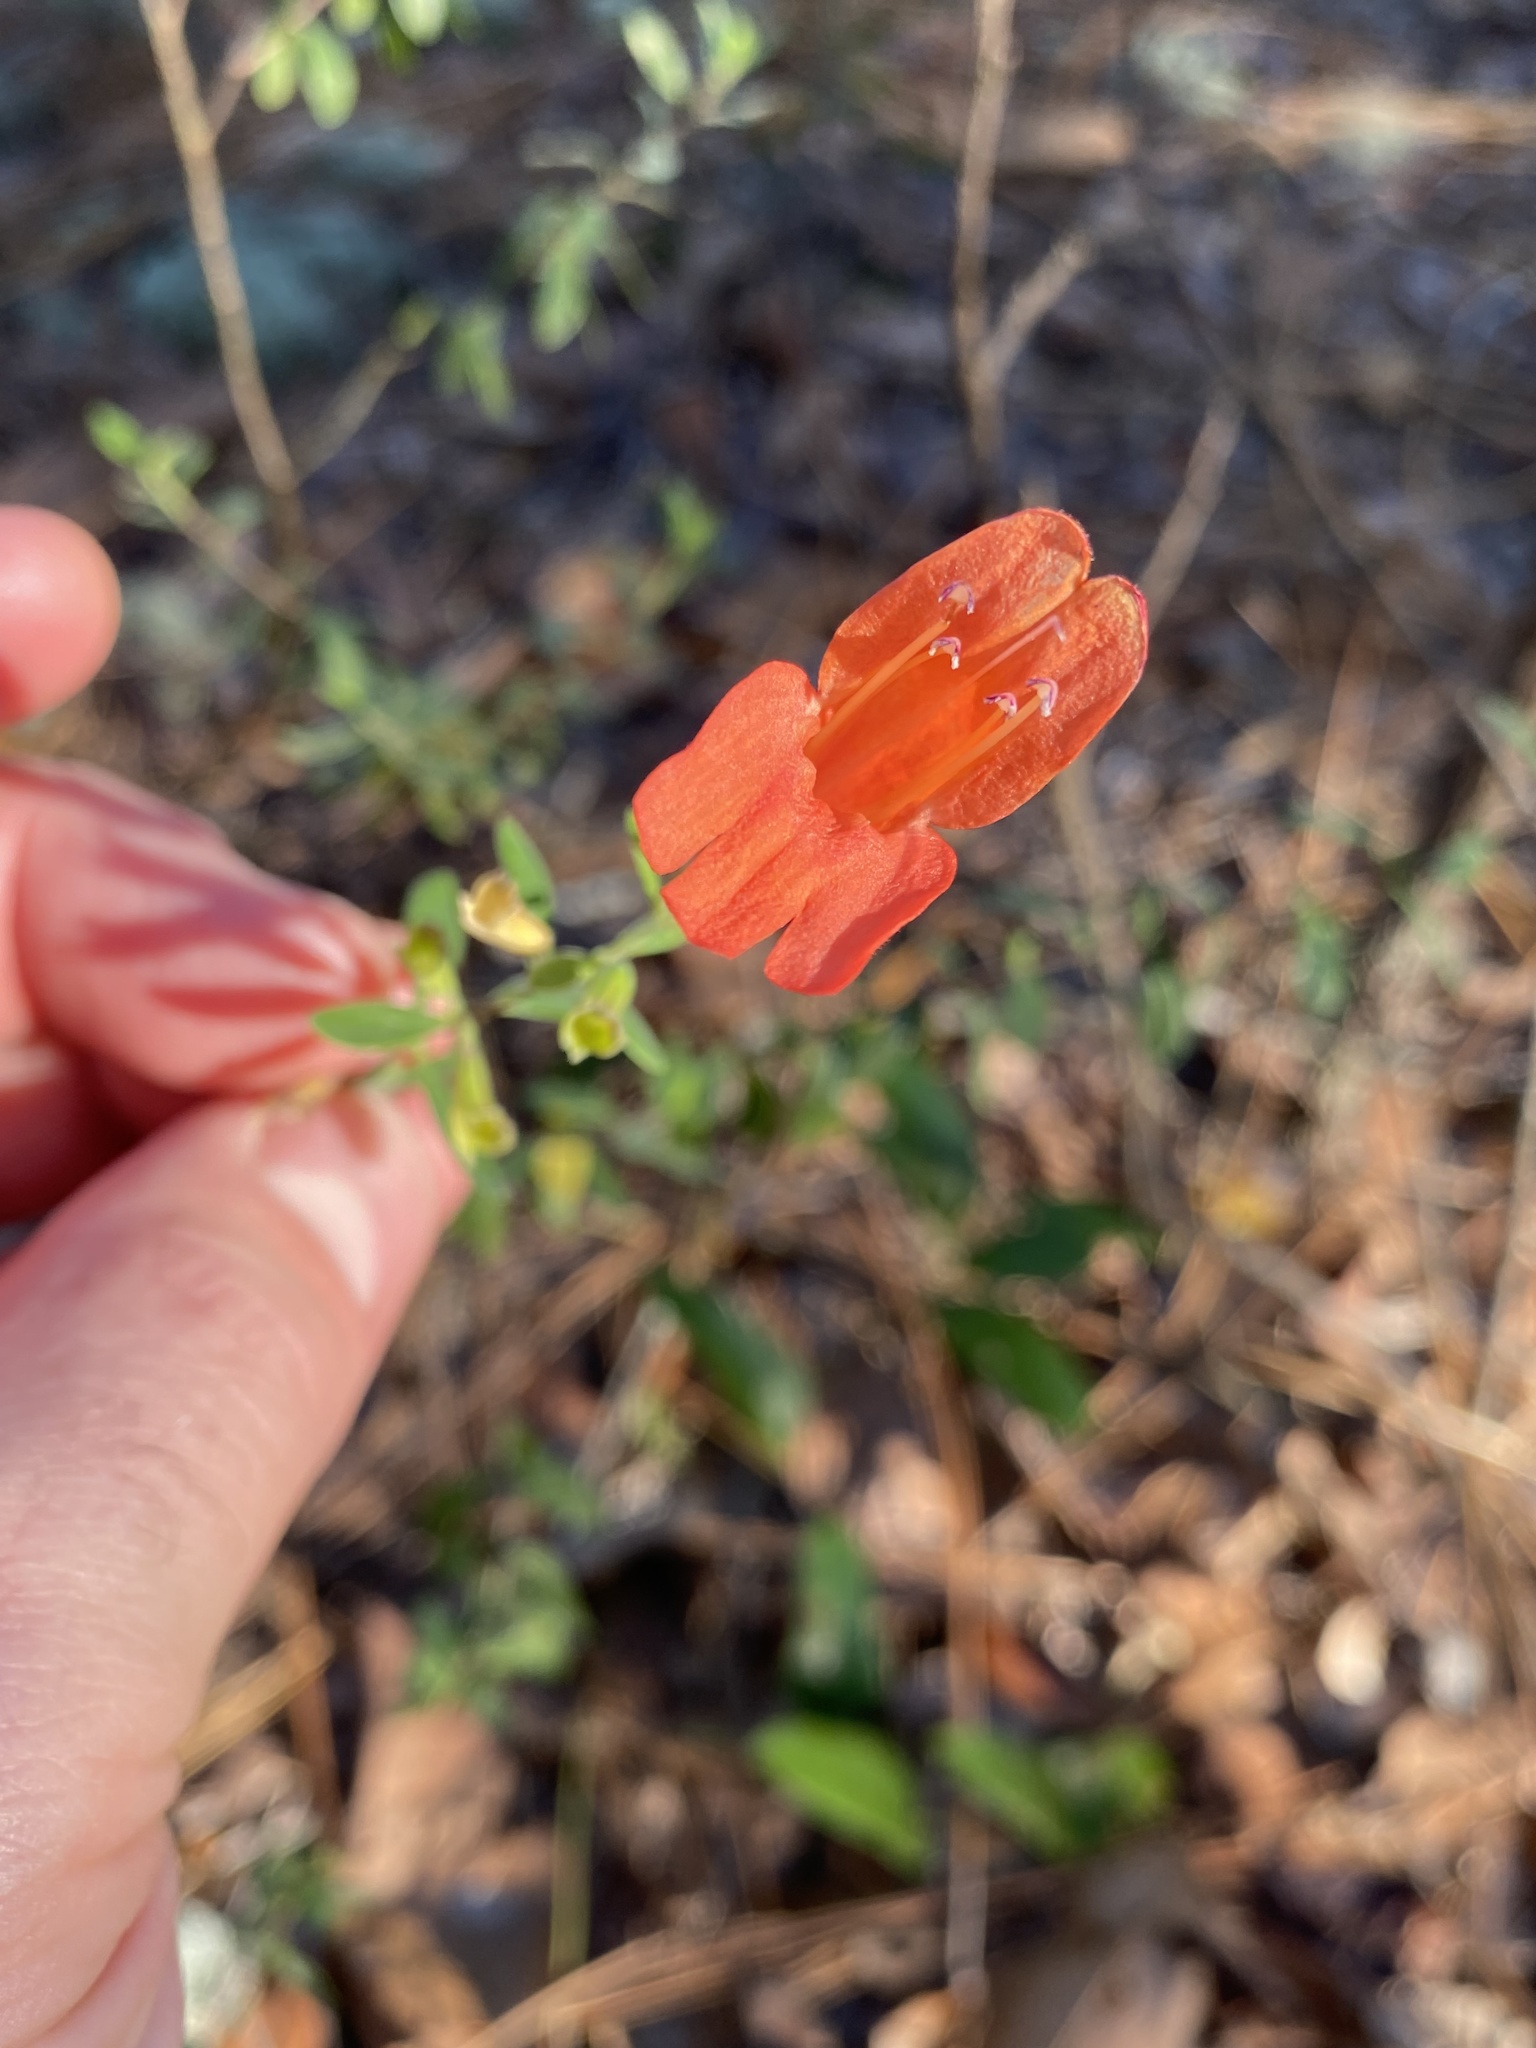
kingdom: Plantae
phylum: Tracheophyta
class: Magnoliopsida
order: Lamiales
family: Lamiaceae
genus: Clinopodium
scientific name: Clinopodium coccineum
